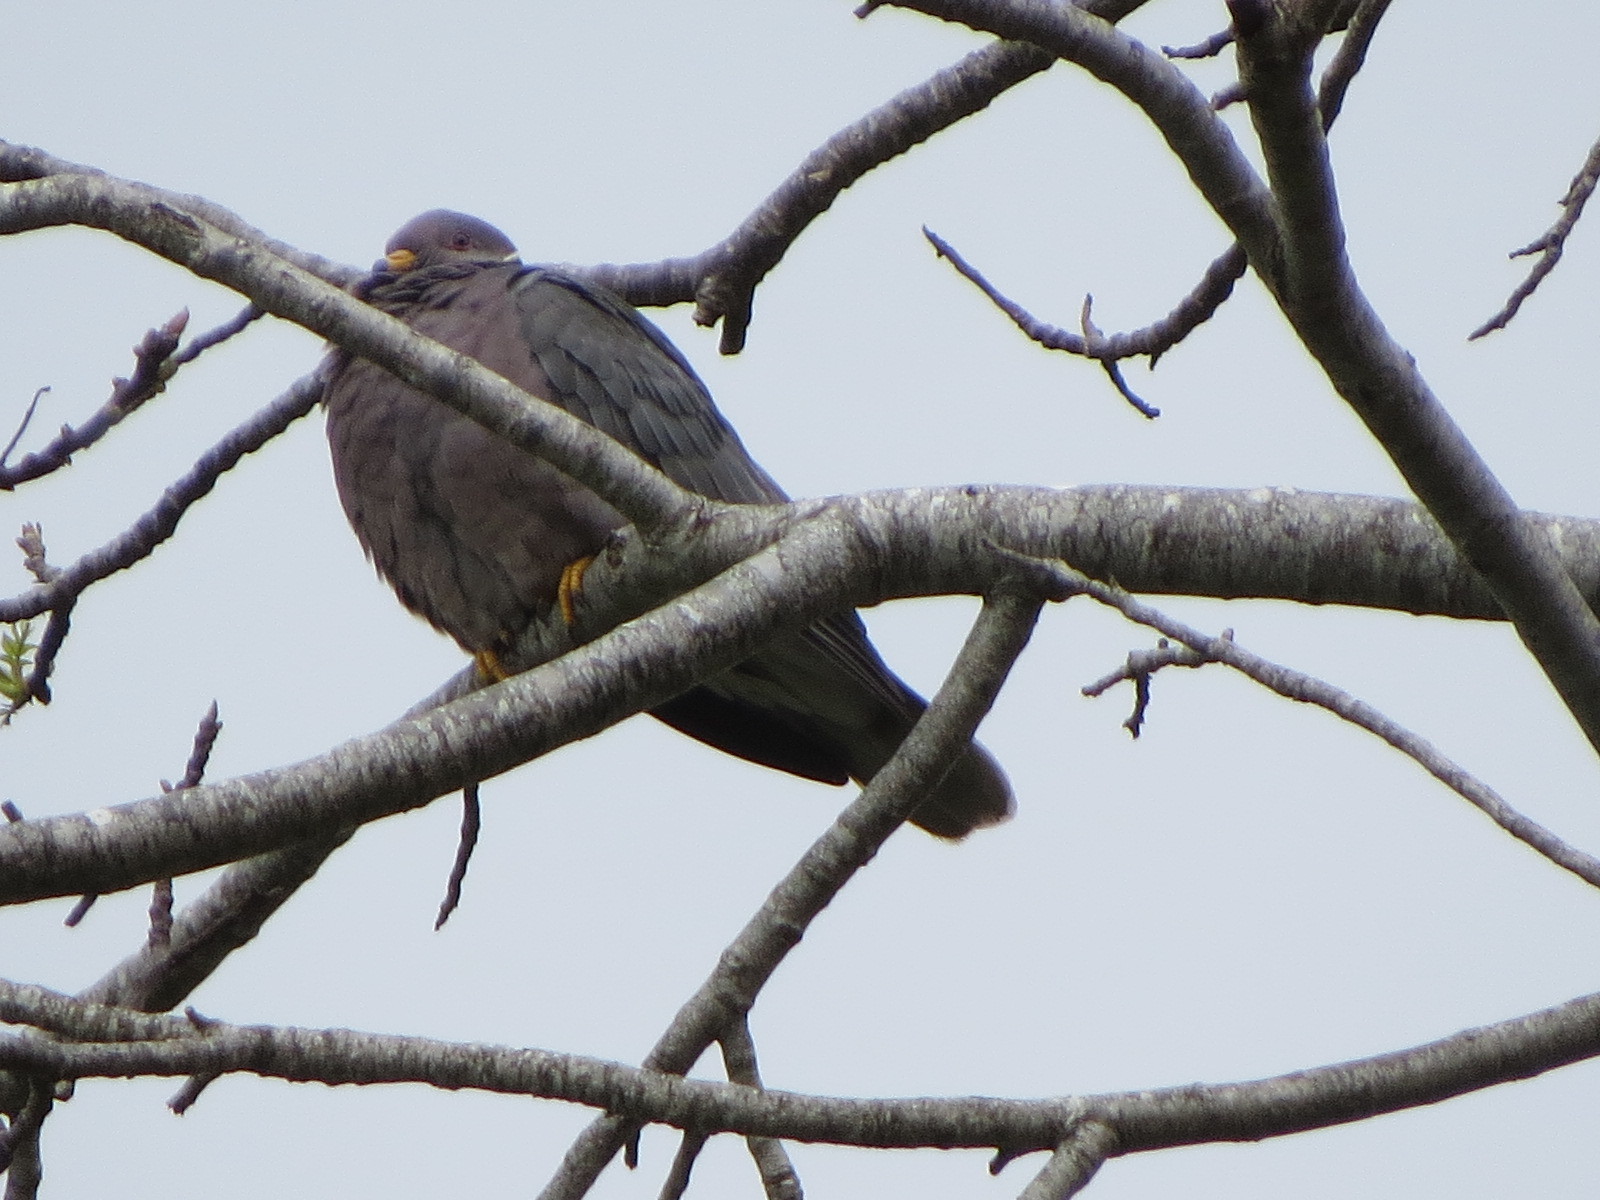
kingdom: Animalia
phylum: Chordata
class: Aves
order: Columbiformes
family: Columbidae
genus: Patagioenas
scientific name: Patagioenas fasciata
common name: Band-tailed pigeon
